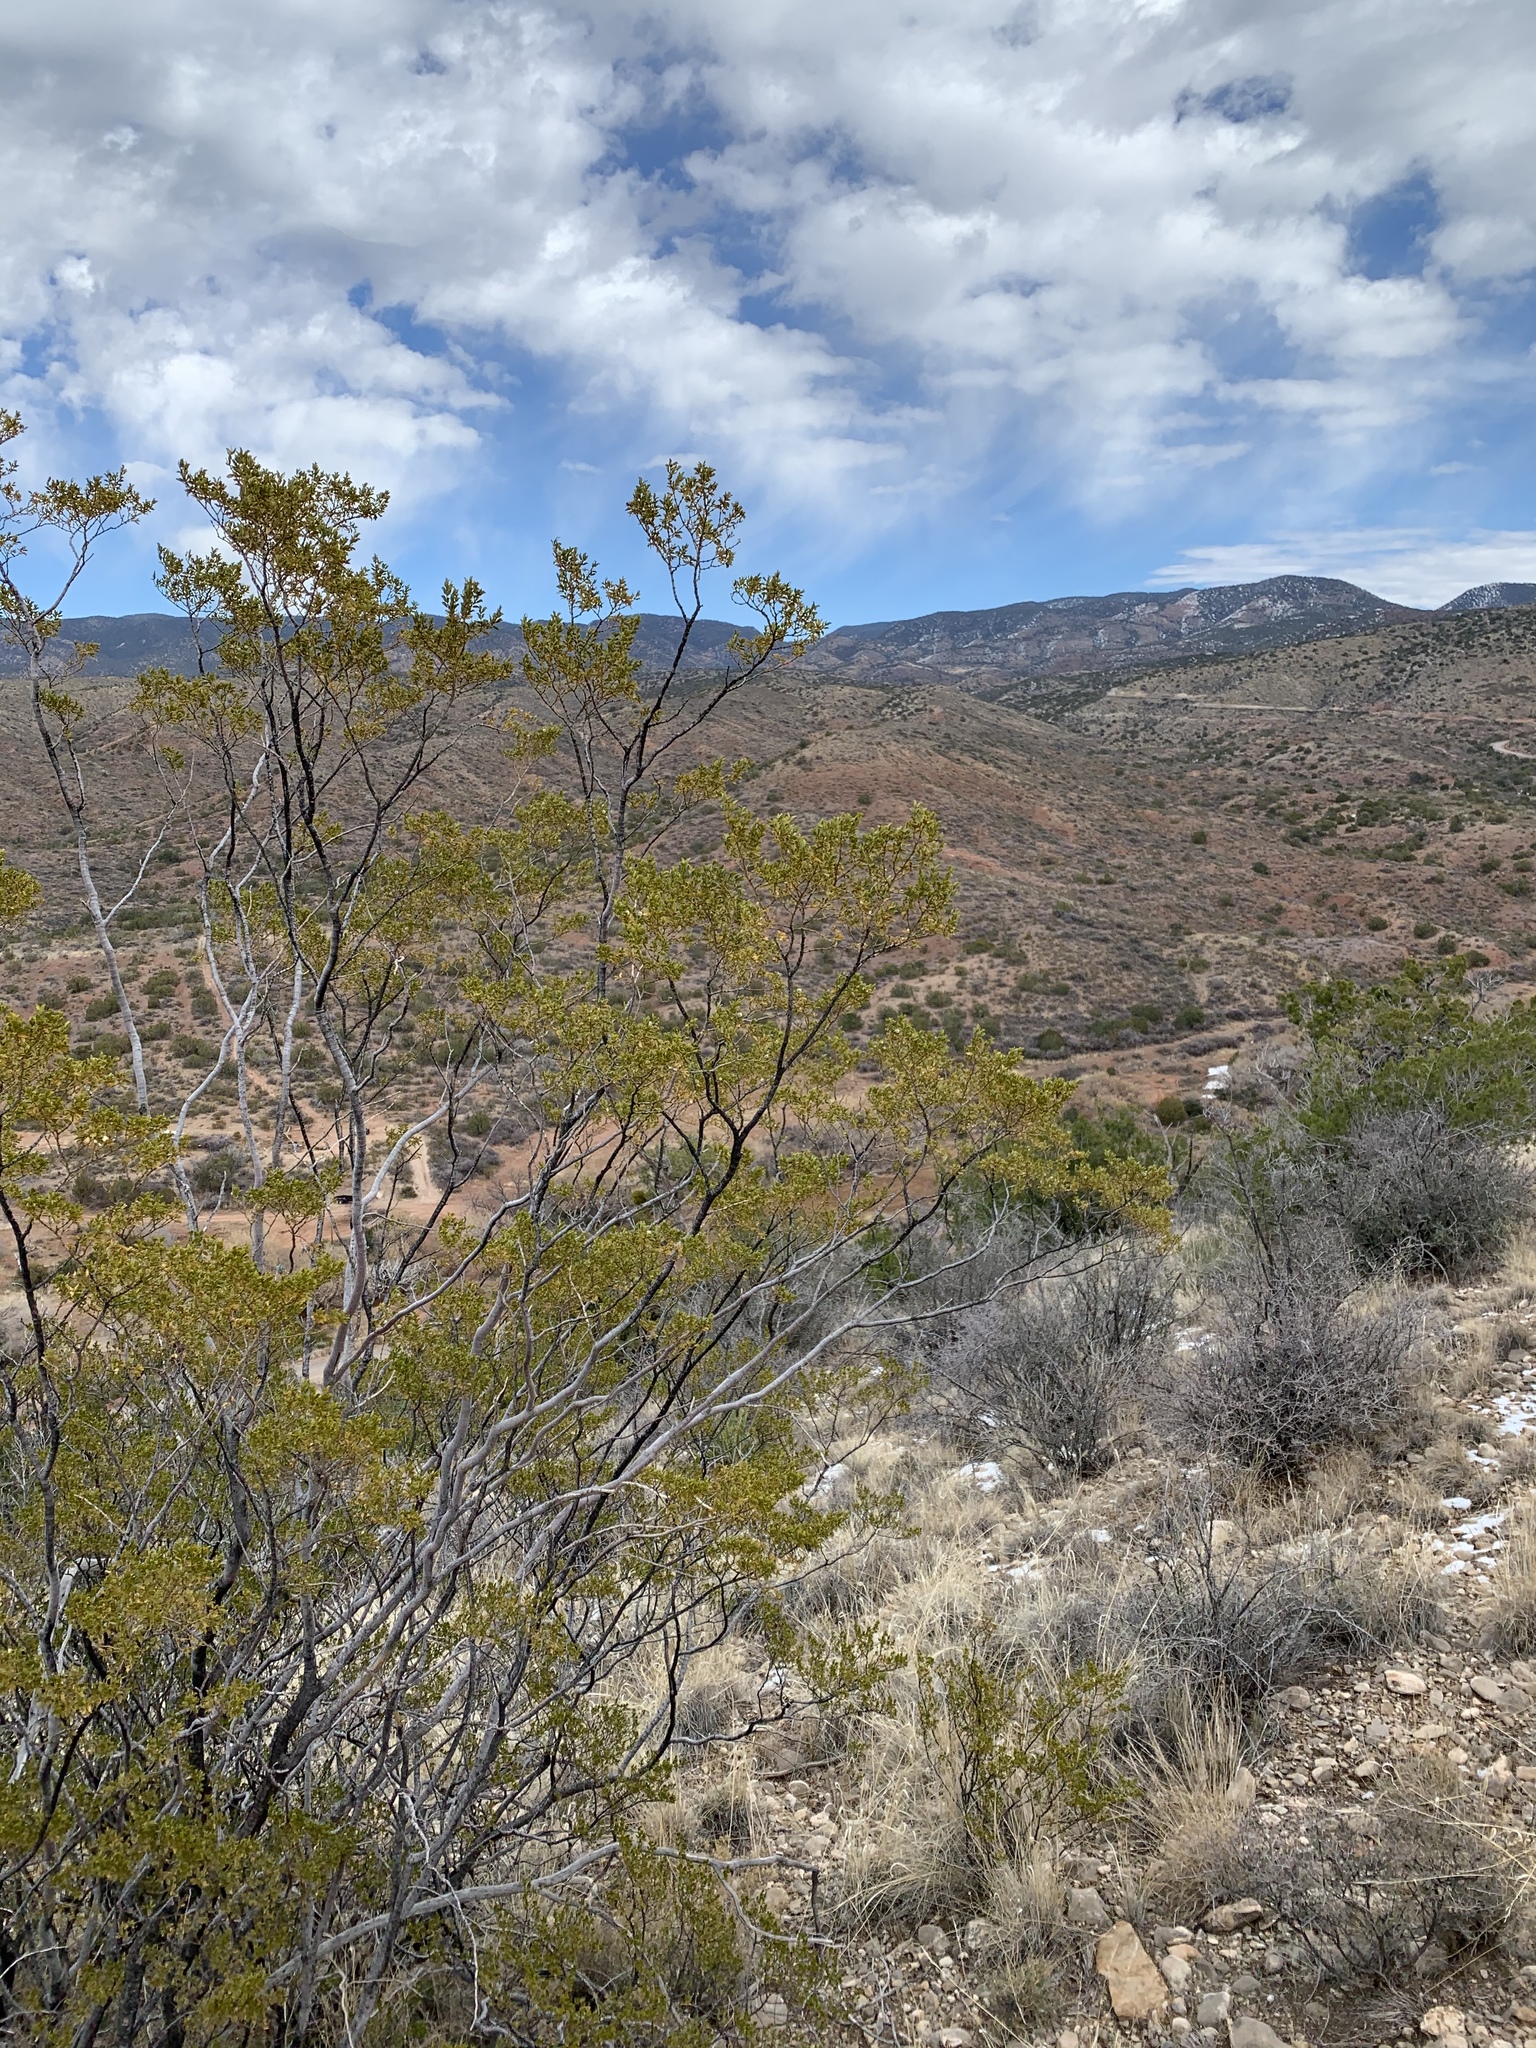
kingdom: Plantae
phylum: Tracheophyta
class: Magnoliopsida
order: Zygophyllales
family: Zygophyllaceae
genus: Larrea
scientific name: Larrea tridentata
